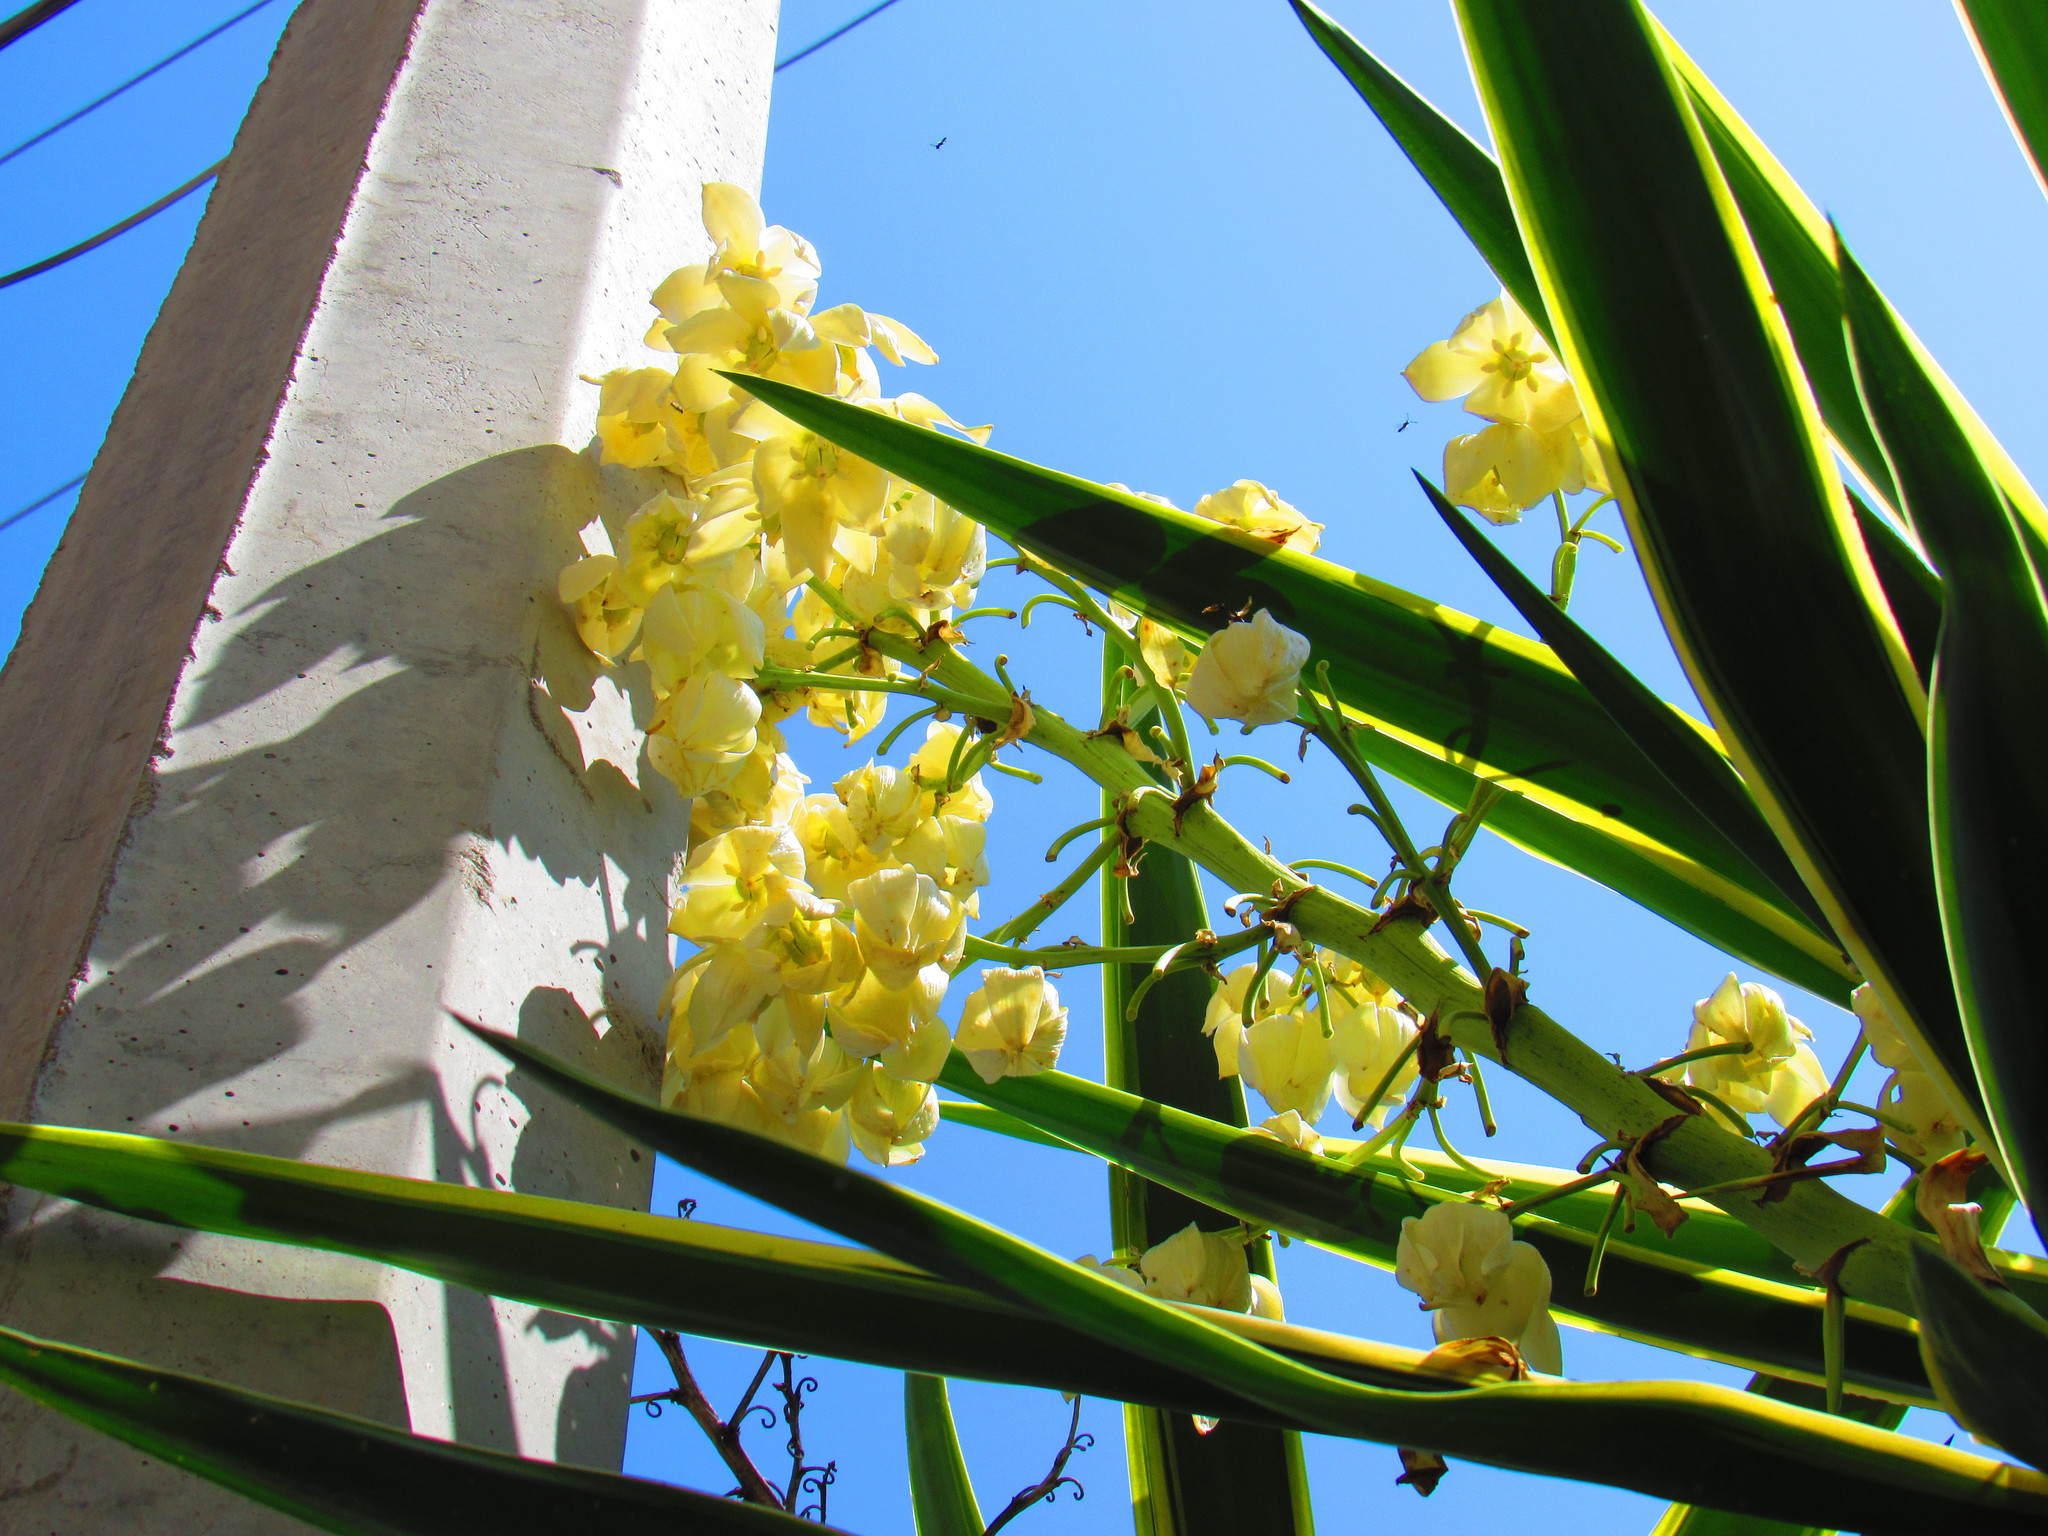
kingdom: Plantae
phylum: Tracheophyta
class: Liliopsida
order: Asparagales
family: Asparagaceae
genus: Yucca
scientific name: Yucca gigantea
